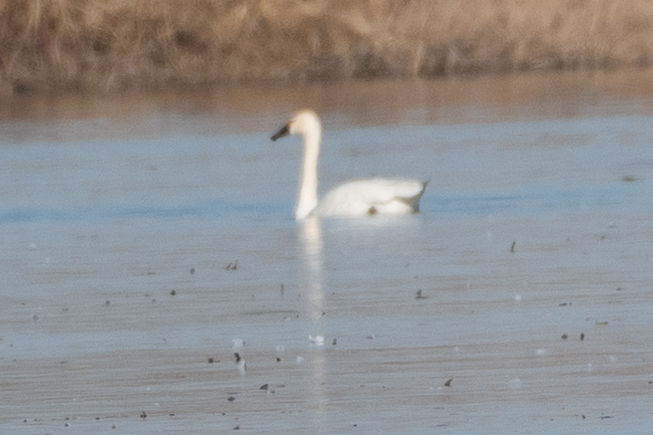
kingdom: Animalia
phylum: Chordata
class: Aves
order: Anseriformes
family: Anatidae
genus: Cygnus
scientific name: Cygnus columbianus
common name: Tundra swan
